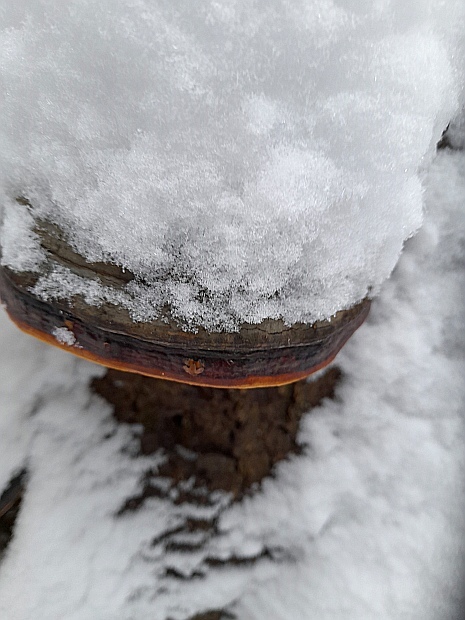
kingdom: Fungi
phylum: Basidiomycota
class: Agaricomycetes
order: Polyporales
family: Fomitopsidaceae
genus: Fomitopsis
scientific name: Fomitopsis pinicola
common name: Red-belted bracket
